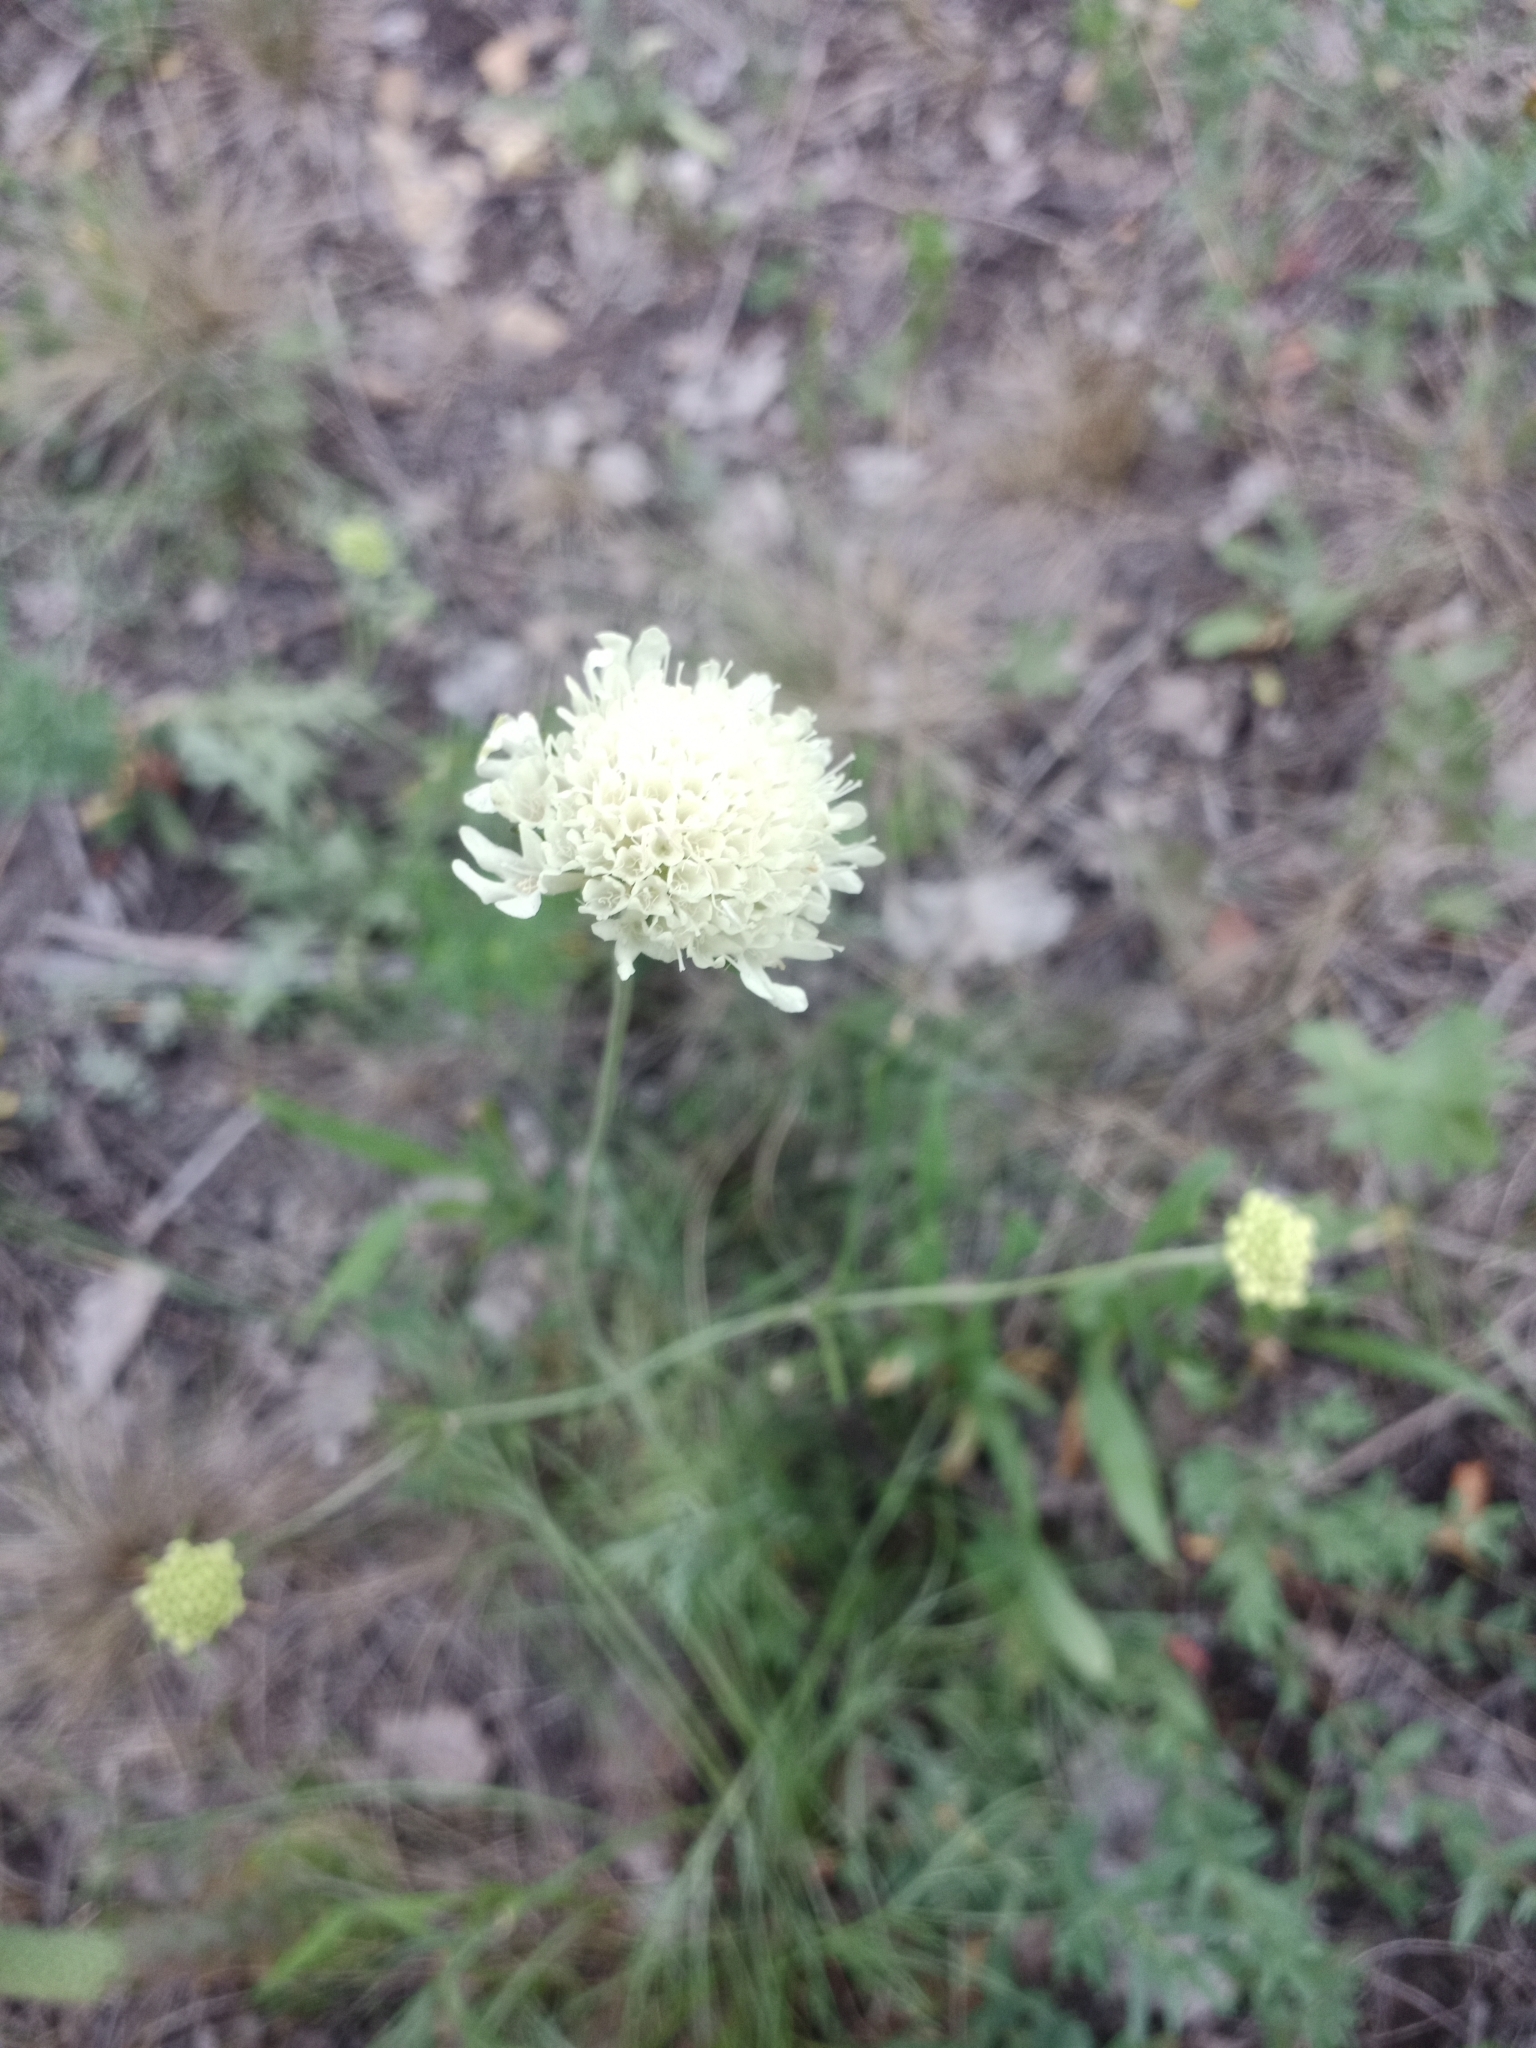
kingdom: Plantae
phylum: Tracheophyta
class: Magnoliopsida
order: Dipsacales
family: Caprifoliaceae
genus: Scabiosa
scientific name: Scabiosa ochroleuca
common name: Cream pincushions
